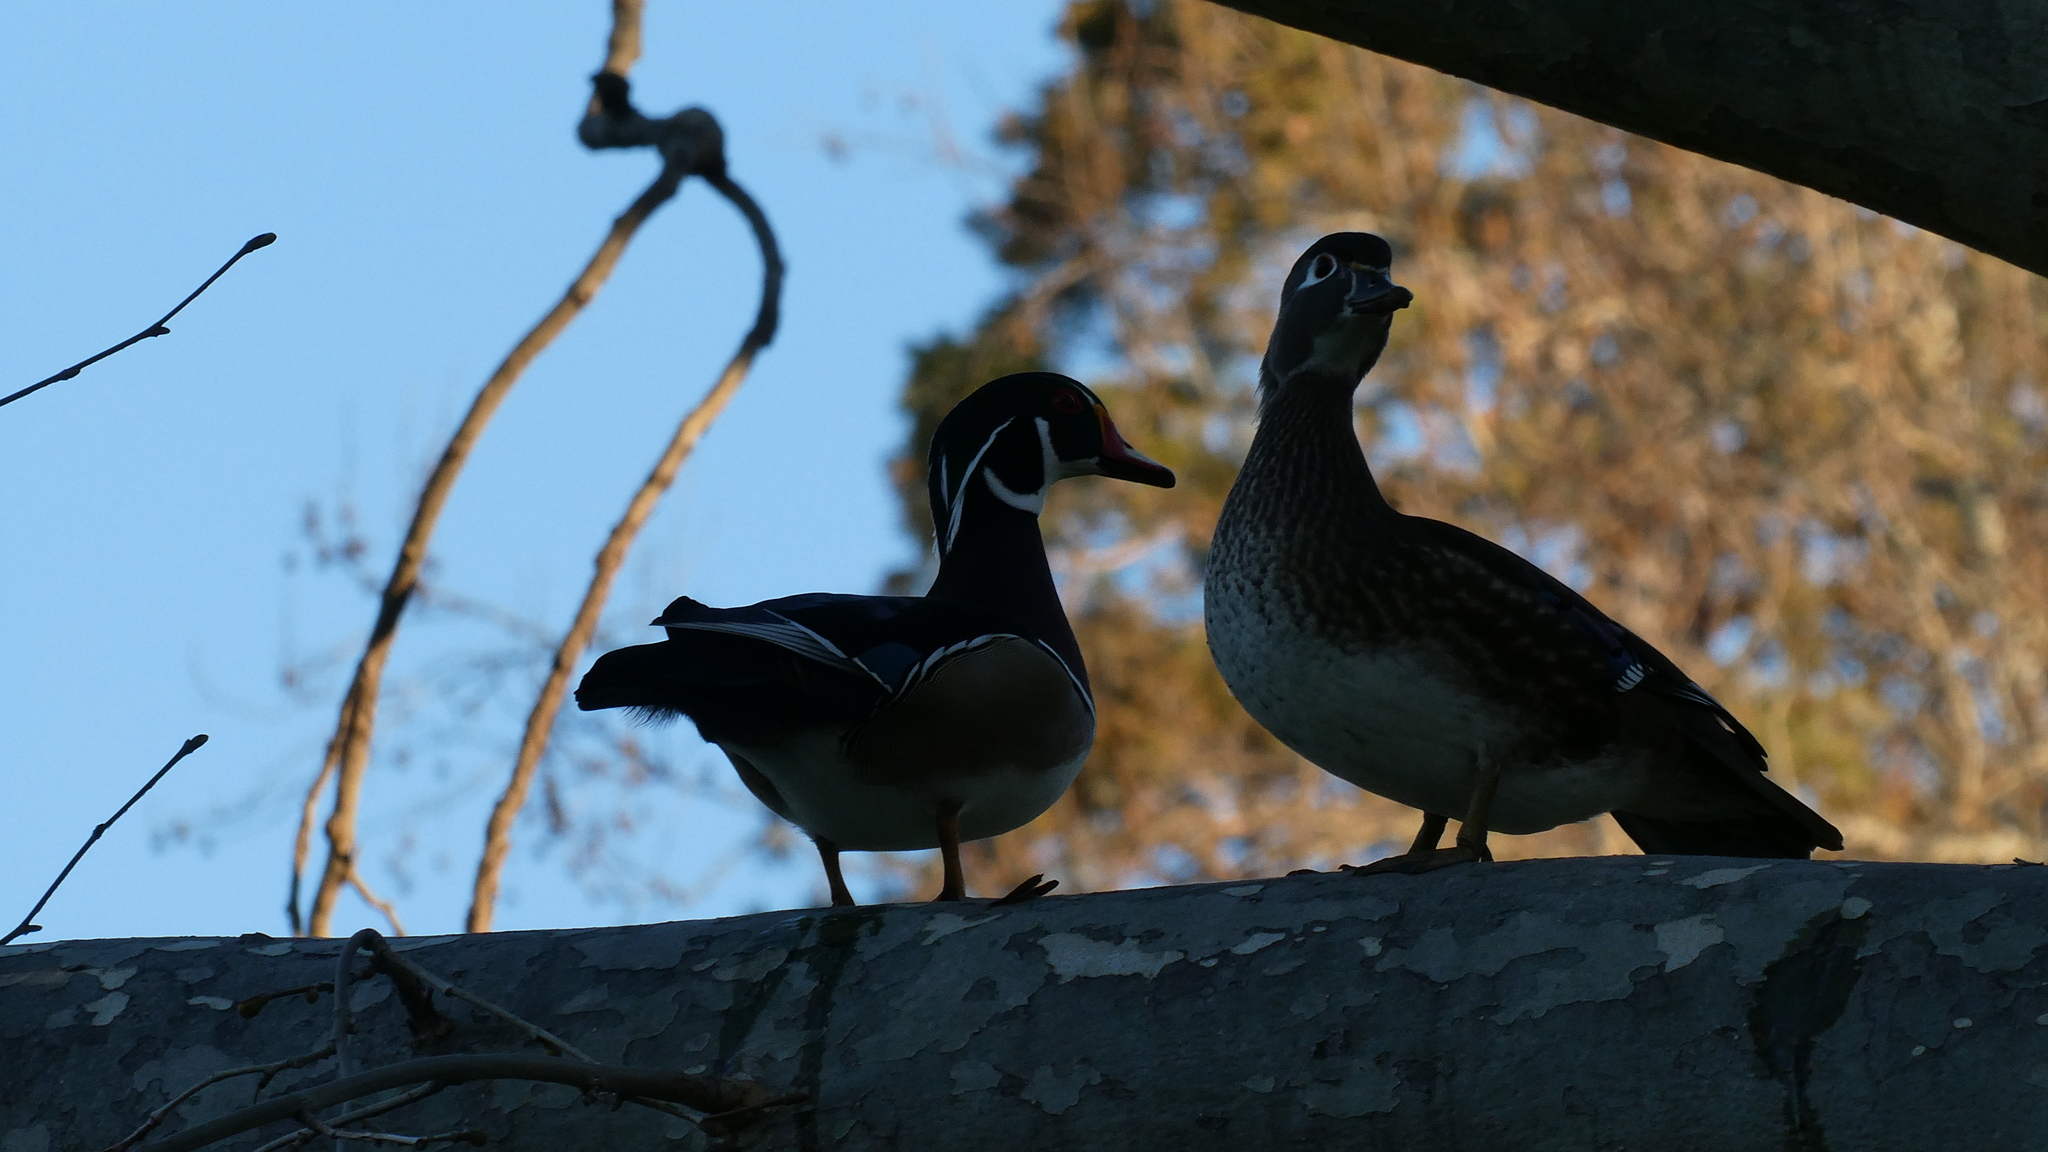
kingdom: Animalia
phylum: Chordata
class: Aves
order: Anseriformes
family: Anatidae
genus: Aix
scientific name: Aix sponsa
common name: Wood duck
